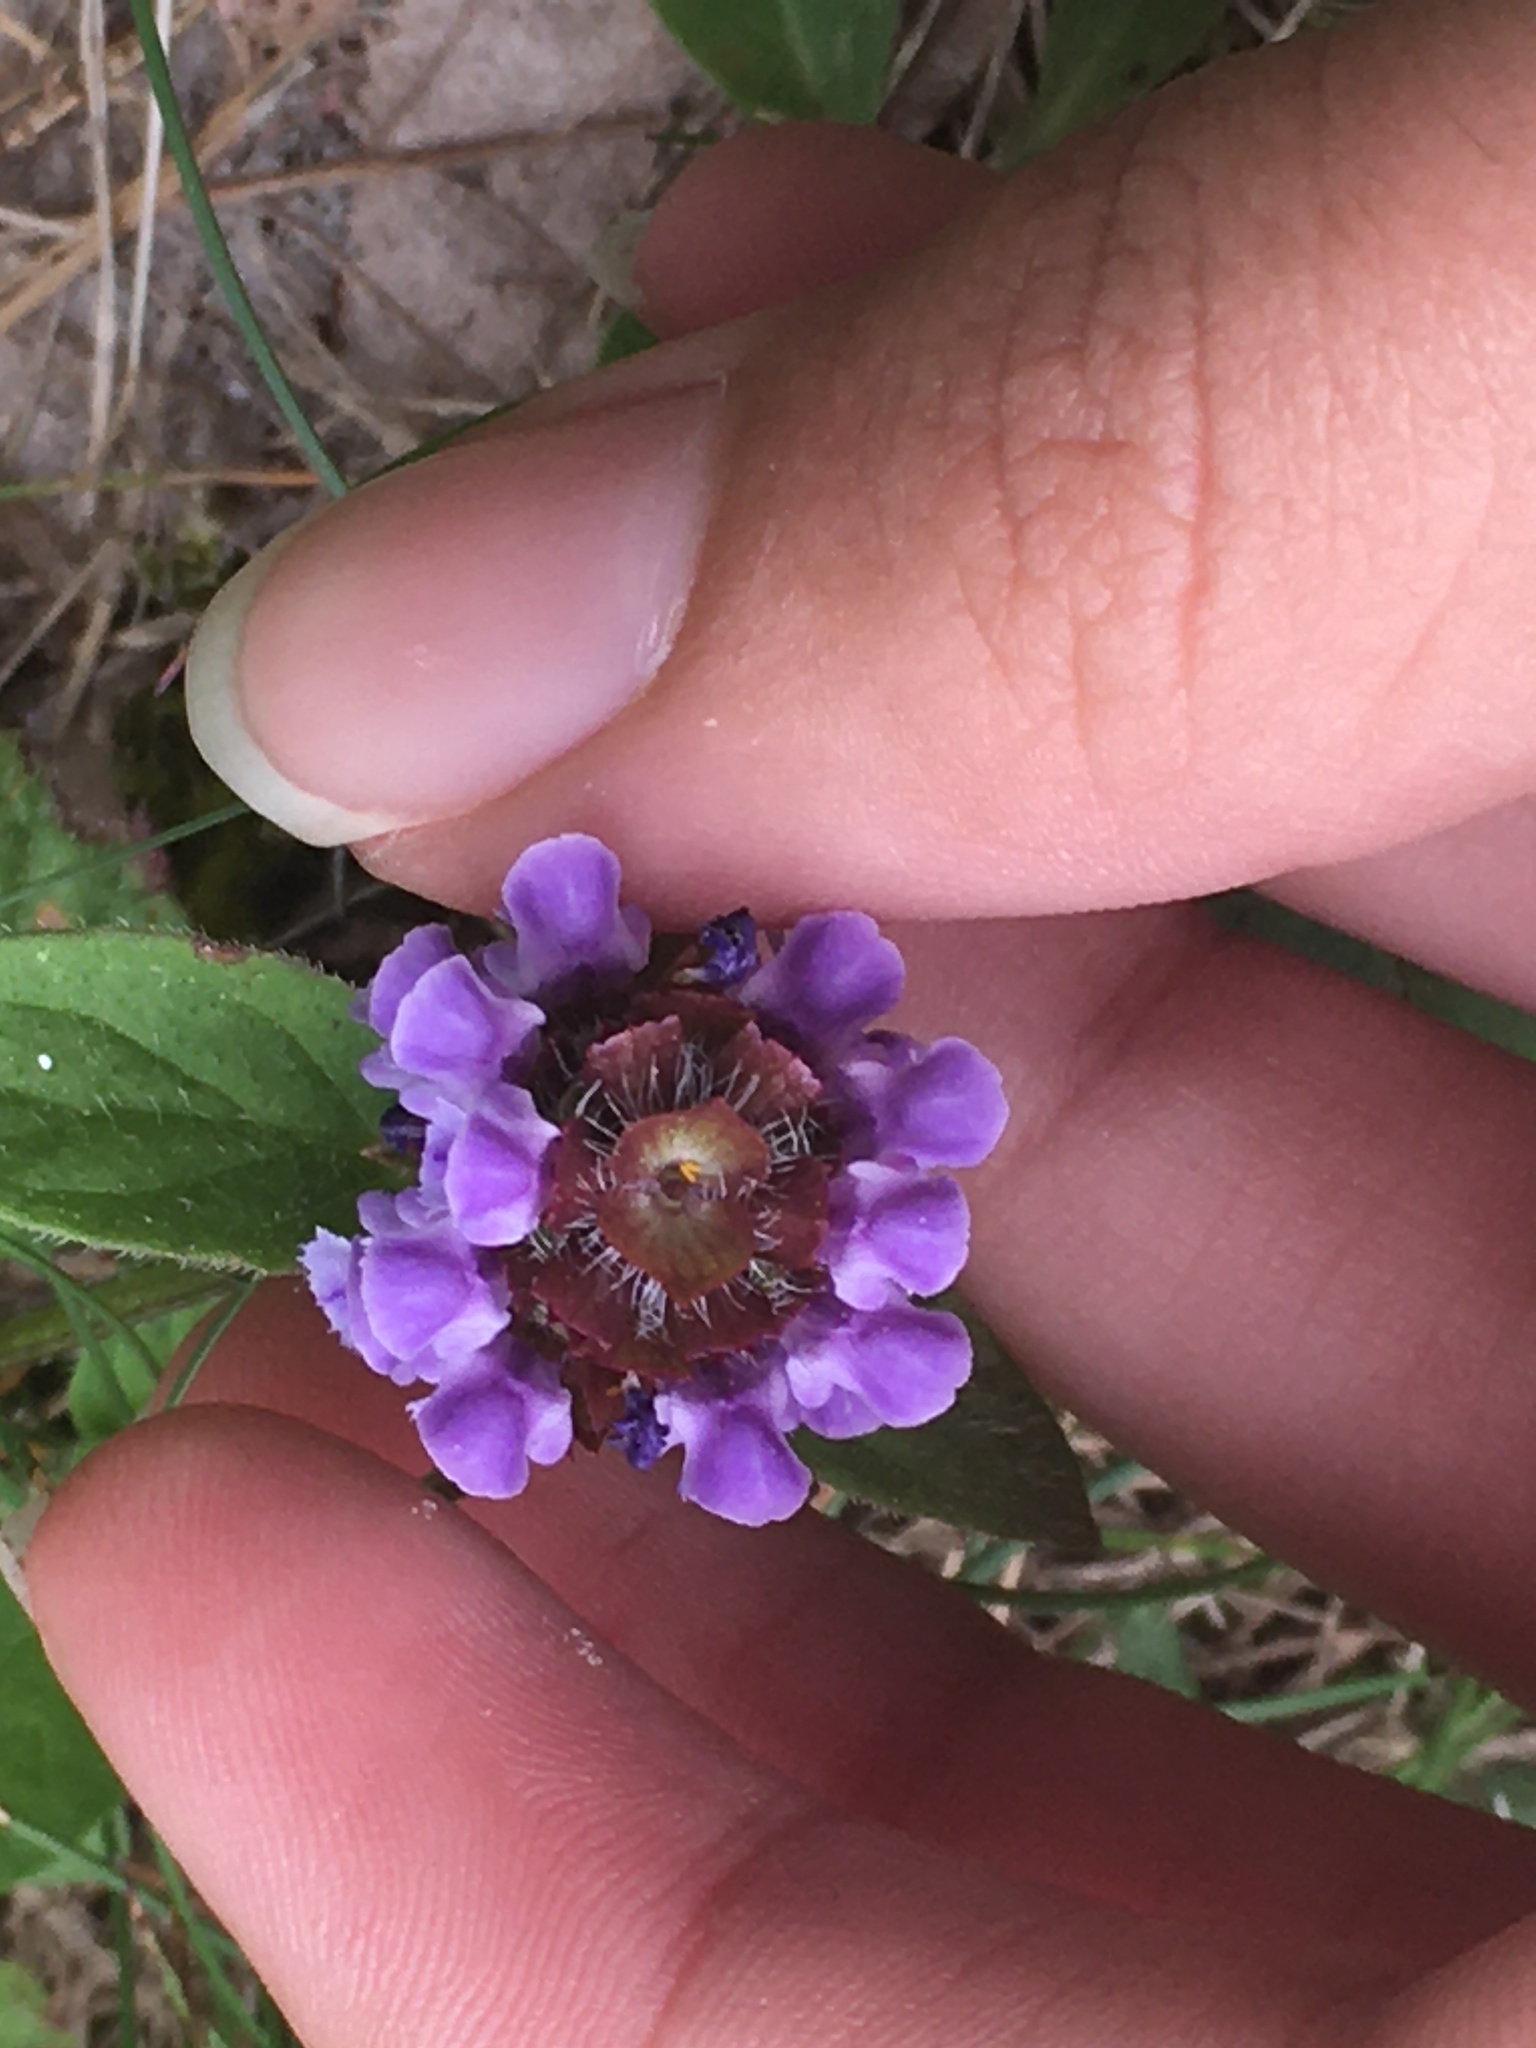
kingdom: Plantae
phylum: Tracheophyta
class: Magnoliopsida
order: Lamiales
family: Lamiaceae
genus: Prunella
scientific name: Prunella vulgaris
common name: Heal-all
